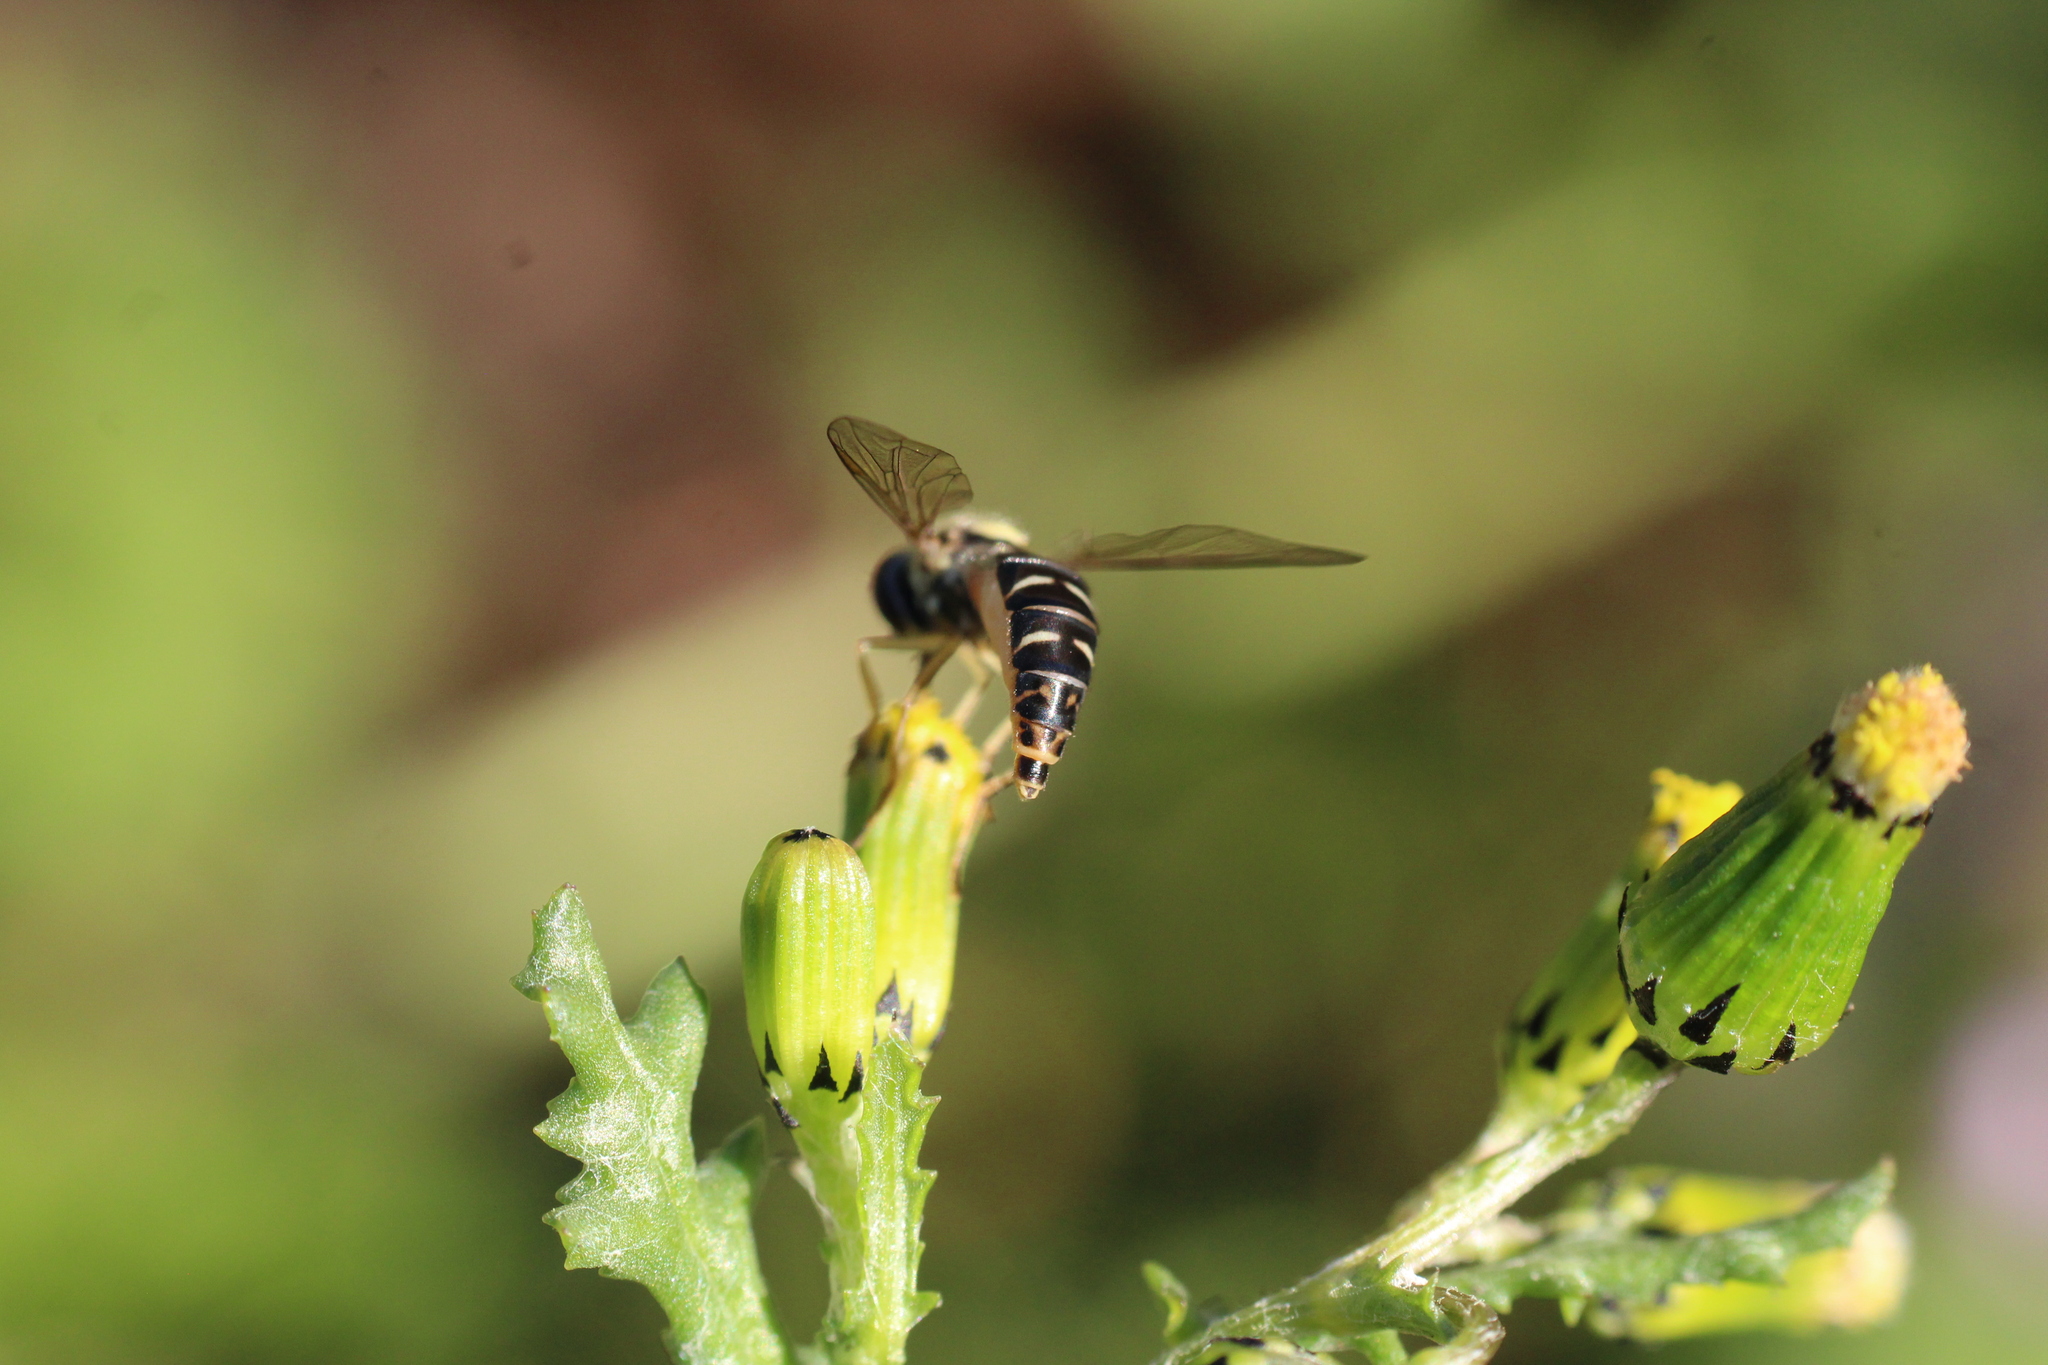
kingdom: Animalia
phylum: Arthropoda
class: Insecta
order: Diptera
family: Syrphidae
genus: Sphaerophoria
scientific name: Sphaerophoria
